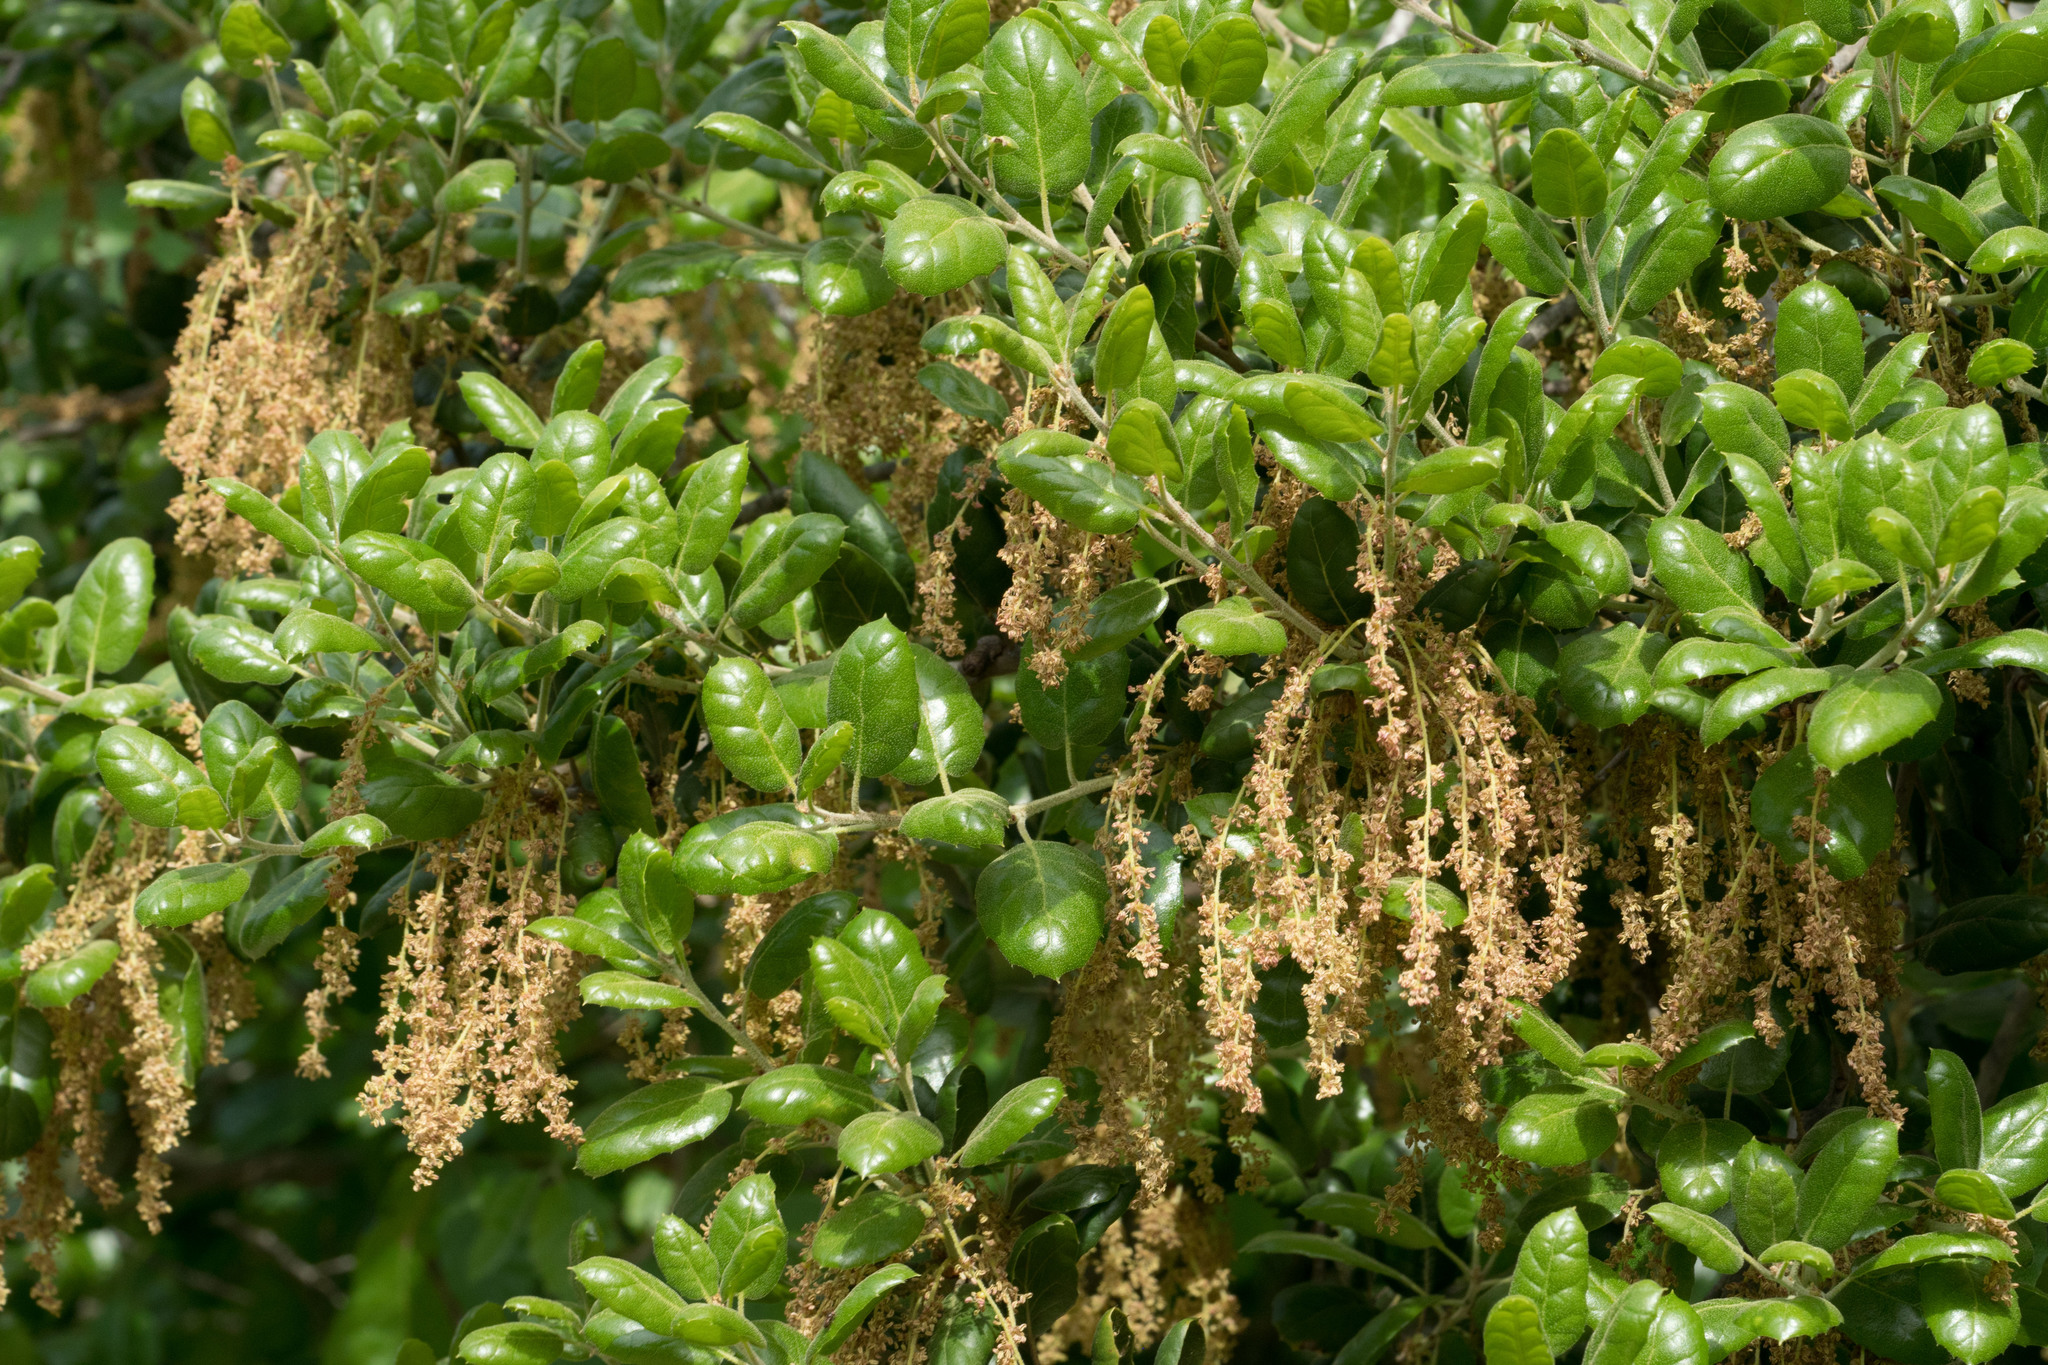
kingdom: Plantae
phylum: Tracheophyta
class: Magnoliopsida
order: Fagales
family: Fagaceae
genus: Quercus
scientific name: Quercus agrifolia
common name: California live oak
